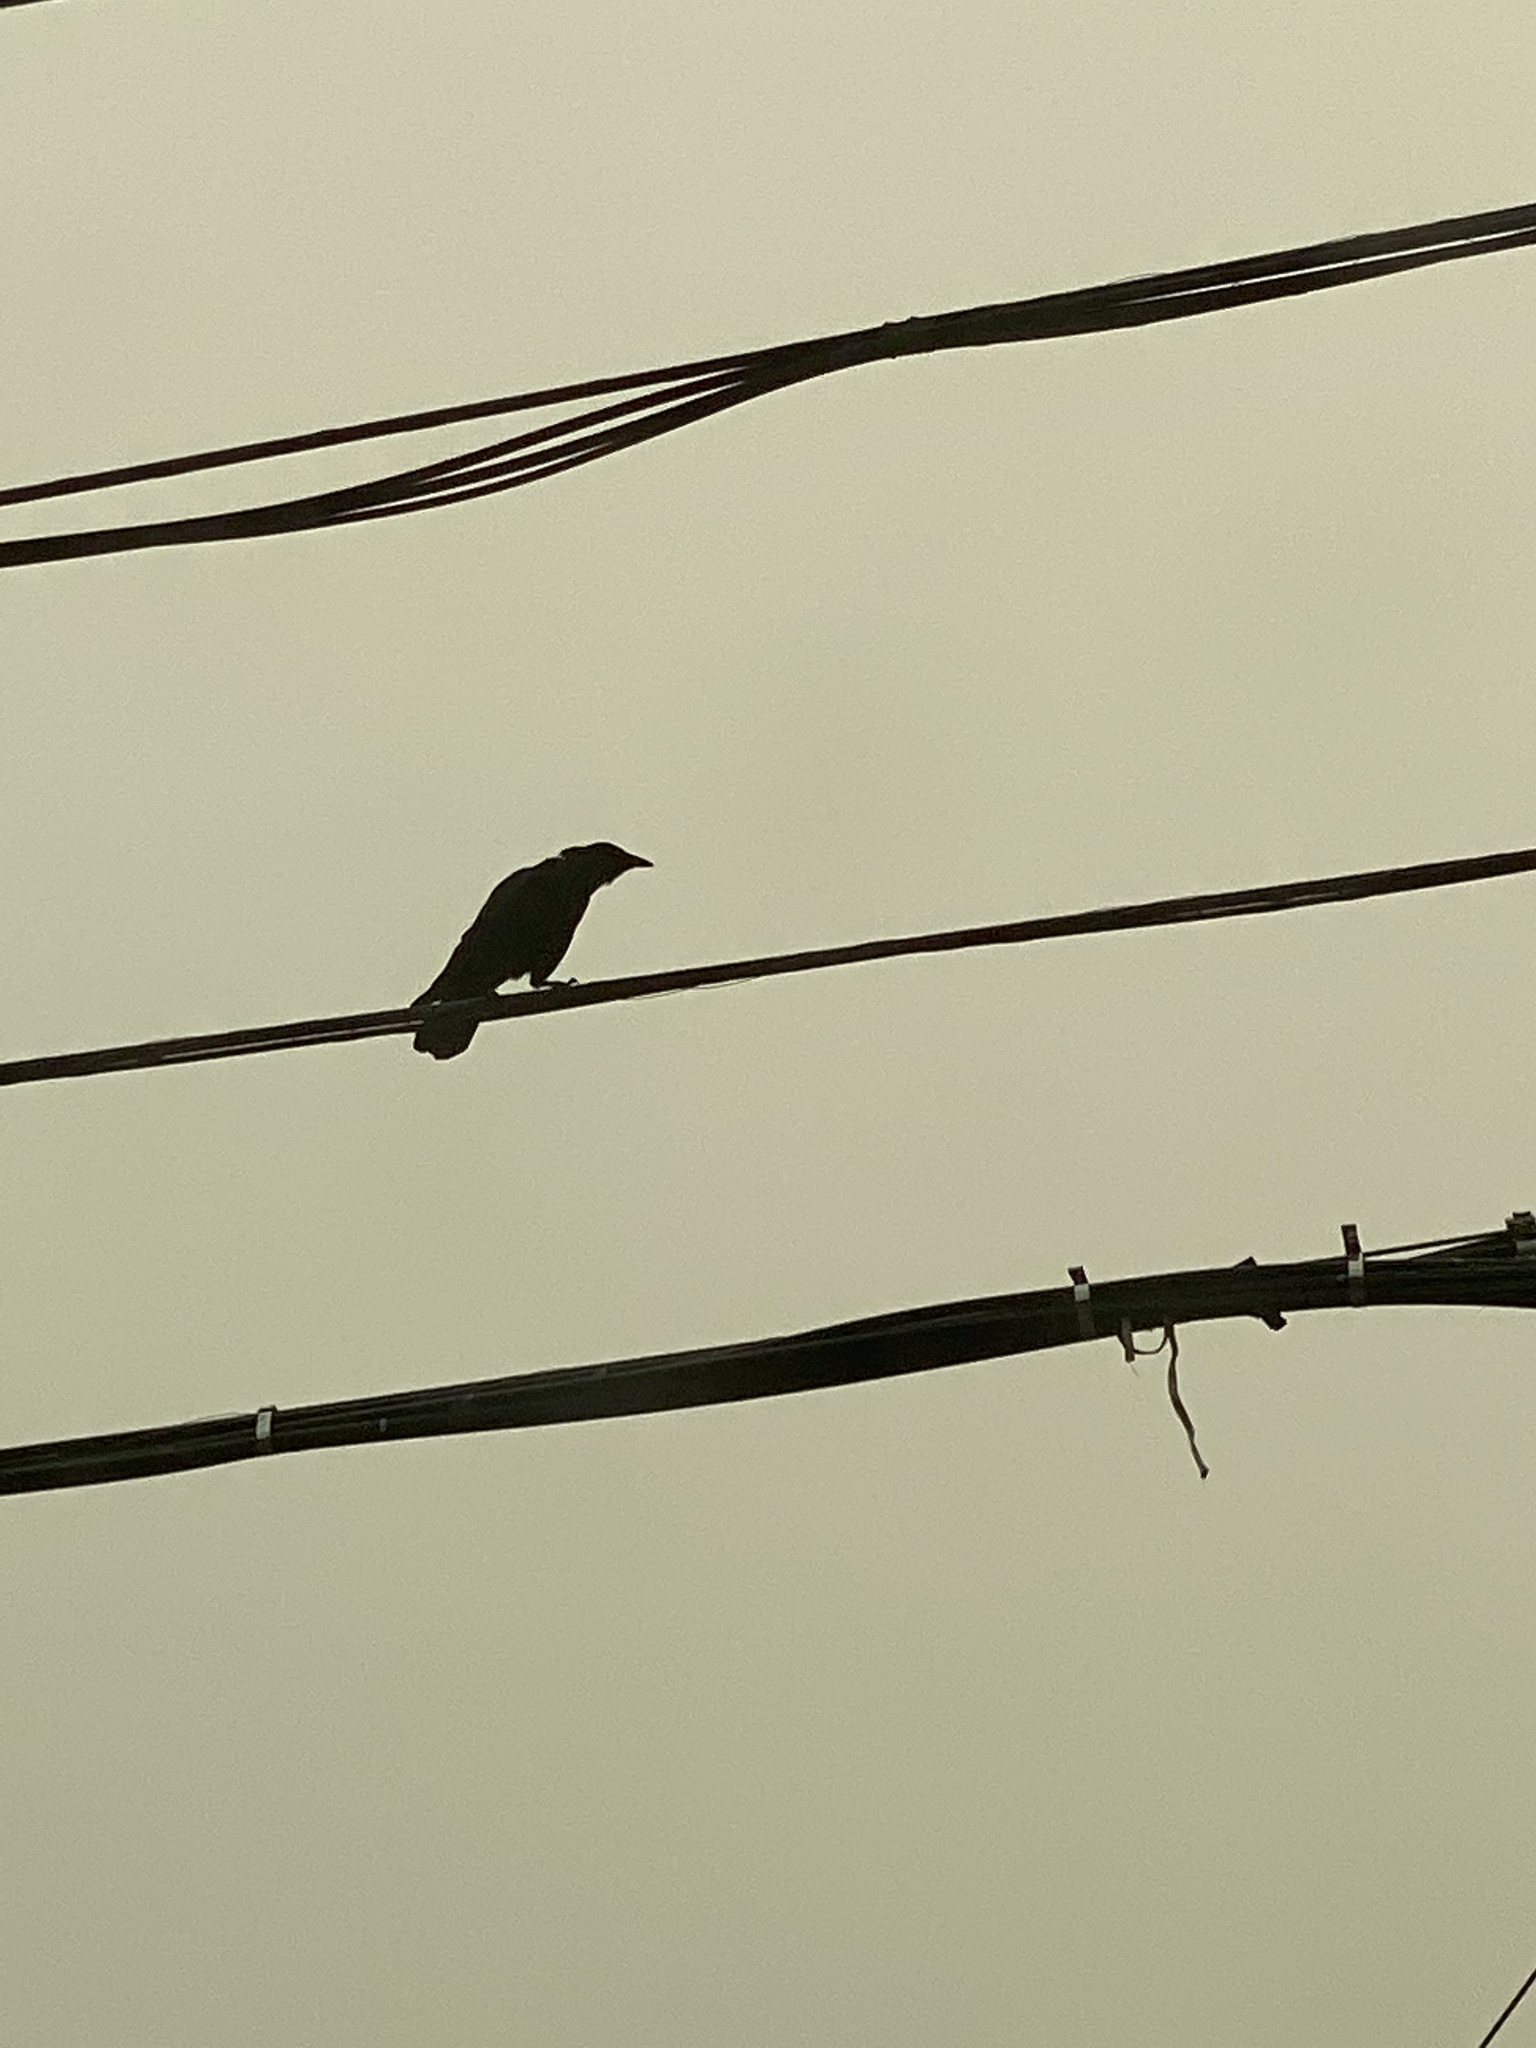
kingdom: Animalia
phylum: Chordata
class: Aves
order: Passeriformes
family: Corvidae
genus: Corvus
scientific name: Corvus brachyrhynchos
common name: American crow
